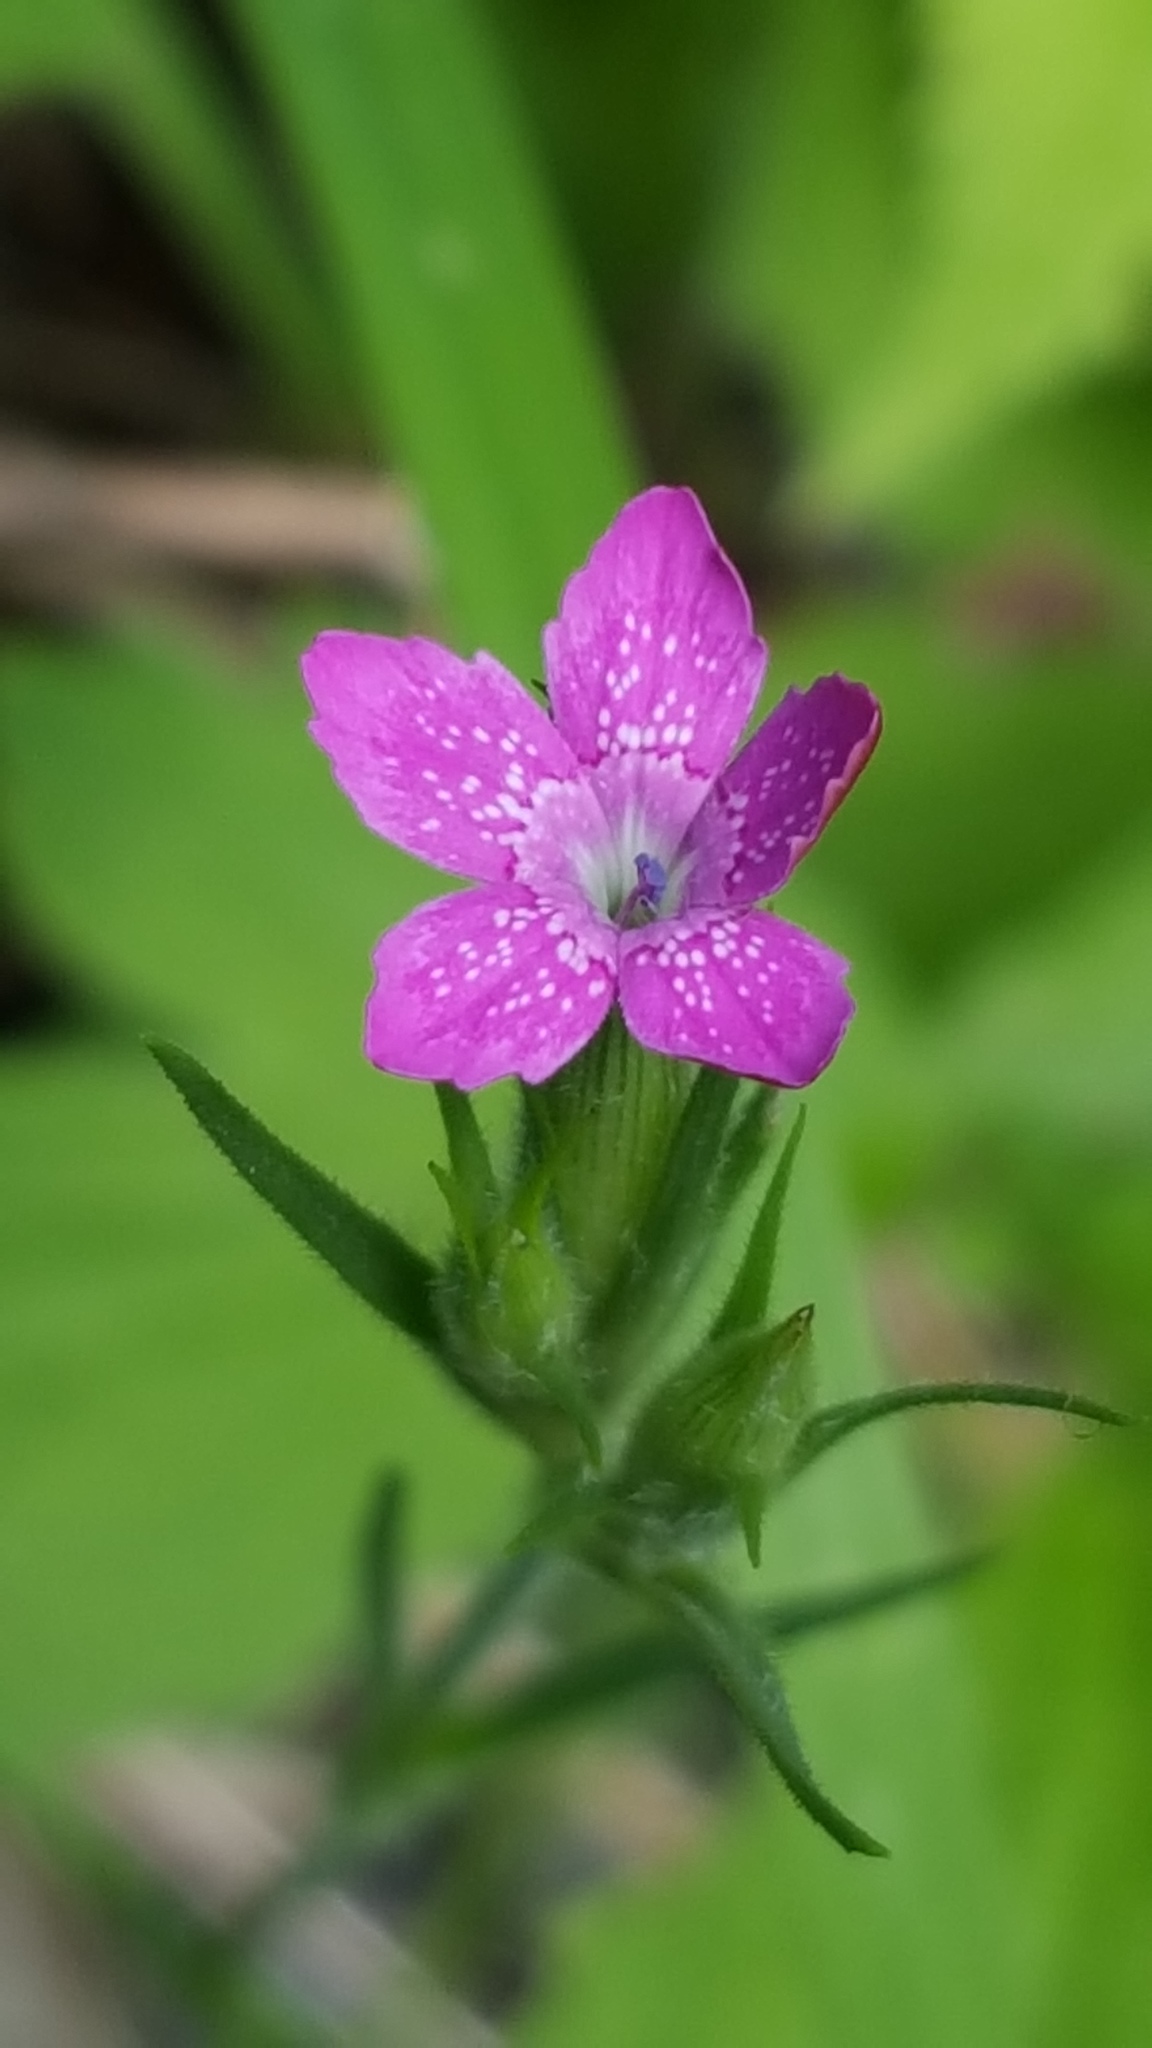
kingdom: Plantae
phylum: Tracheophyta
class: Magnoliopsida
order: Caryophyllales
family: Caryophyllaceae
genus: Dianthus
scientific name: Dianthus armeria
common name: Deptford pink
